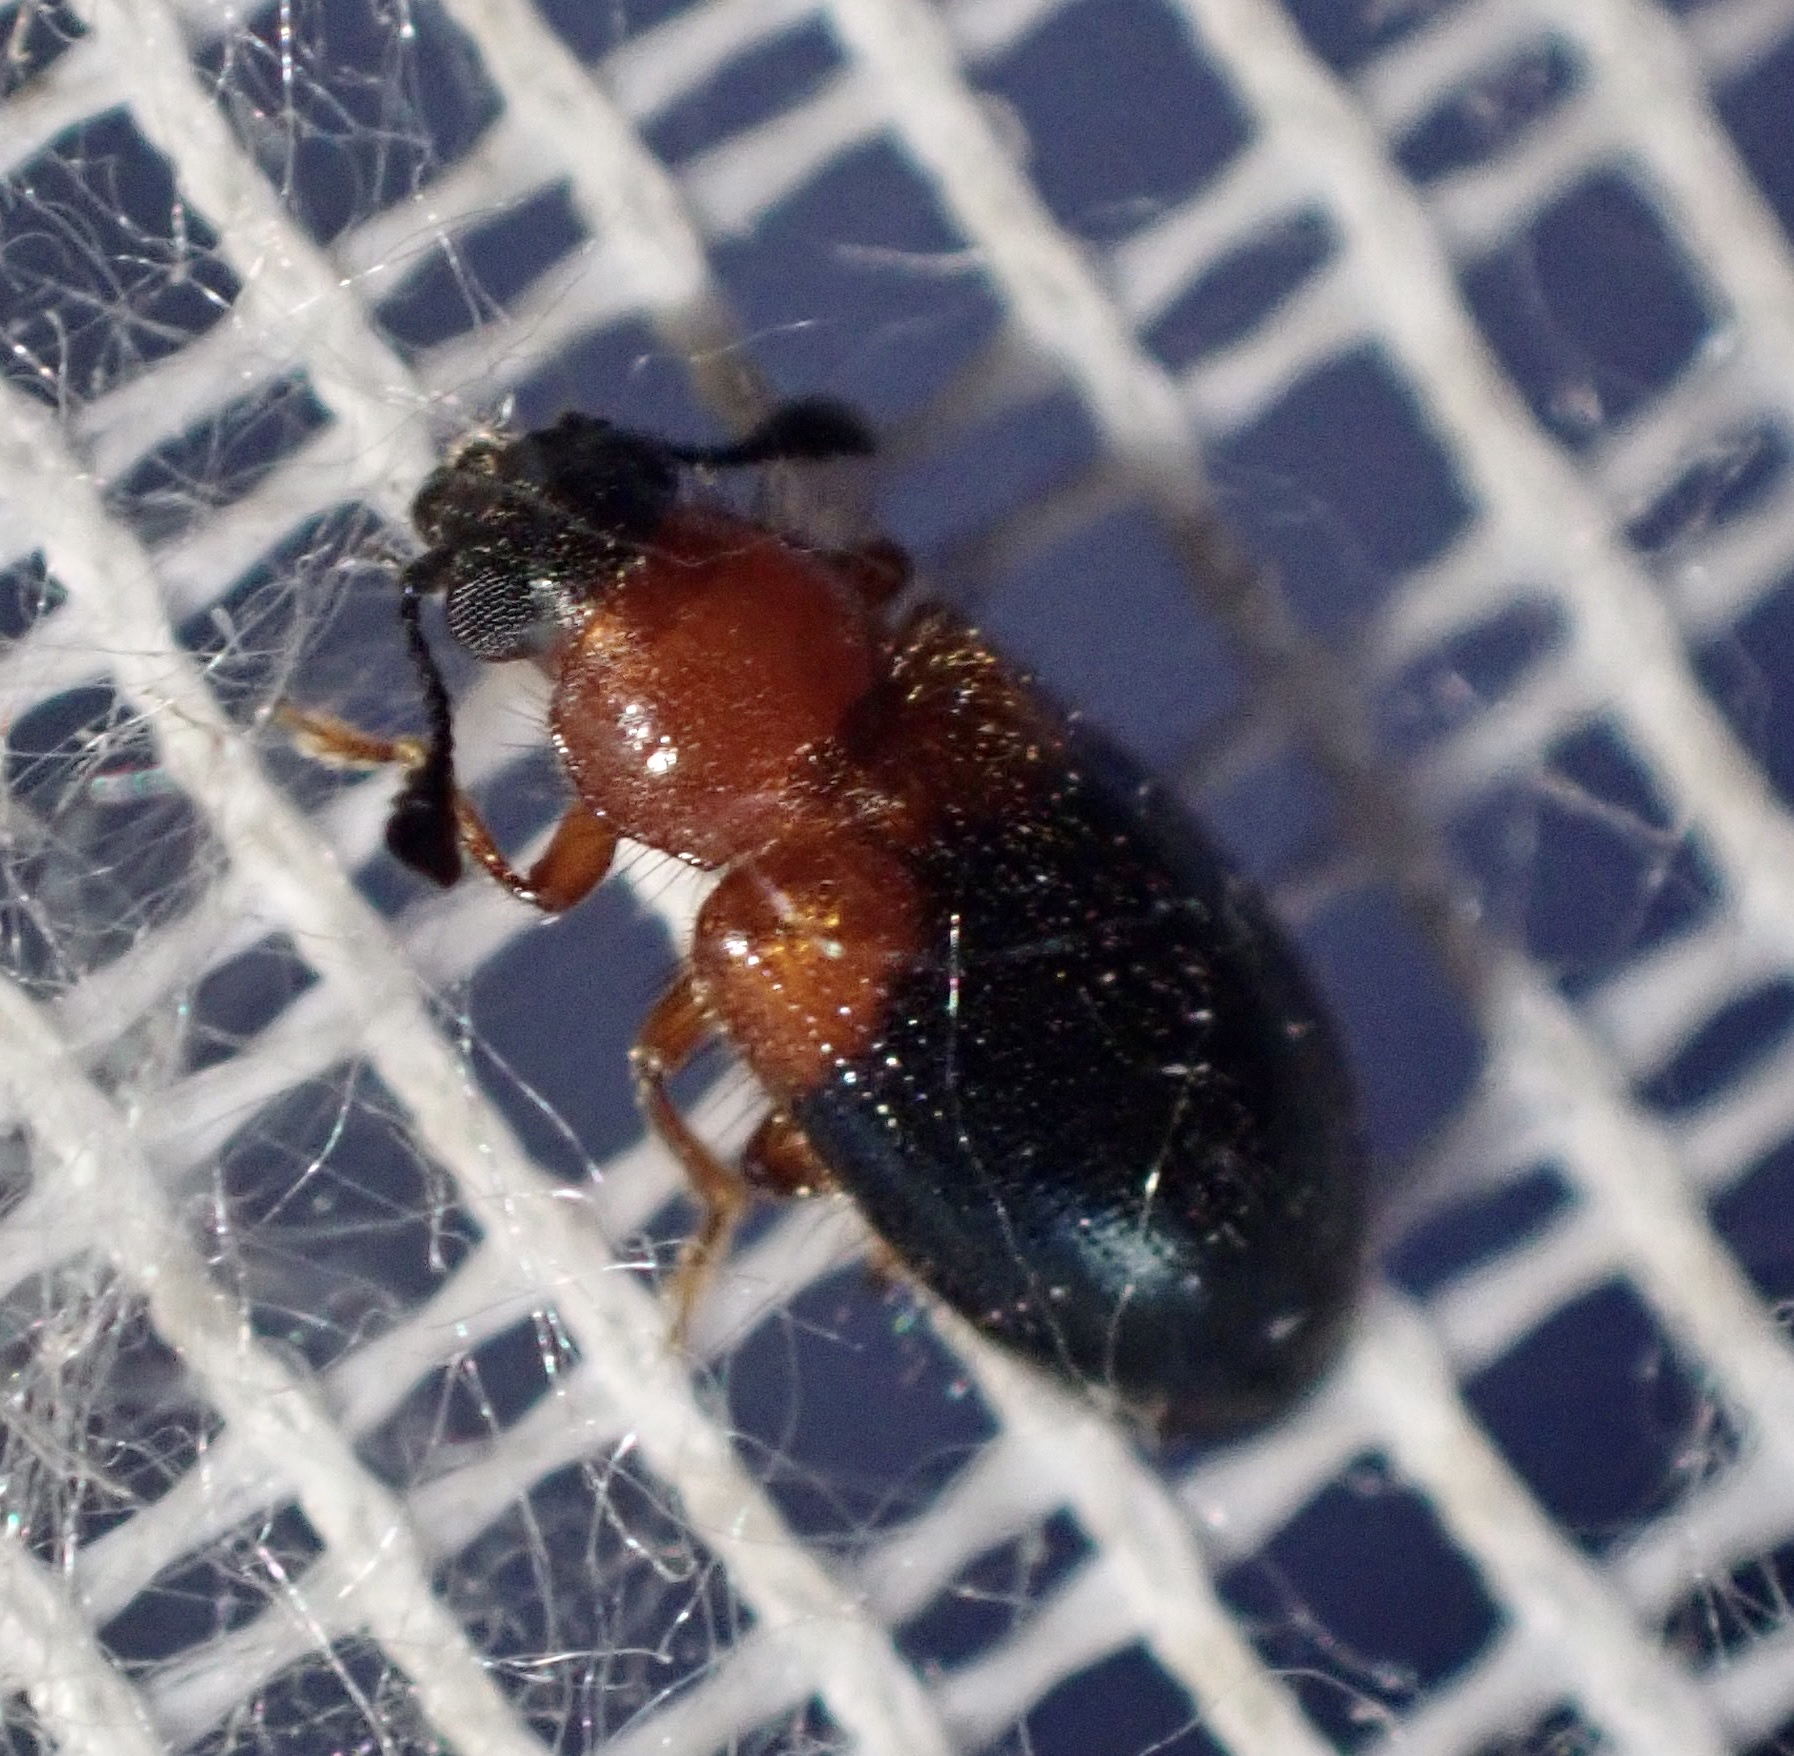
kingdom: Animalia
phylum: Arthropoda
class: Insecta
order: Coleoptera
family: Cleridae
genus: Necrobia
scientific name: Necrobia ruficollis
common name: Redshouldered ham beetle
